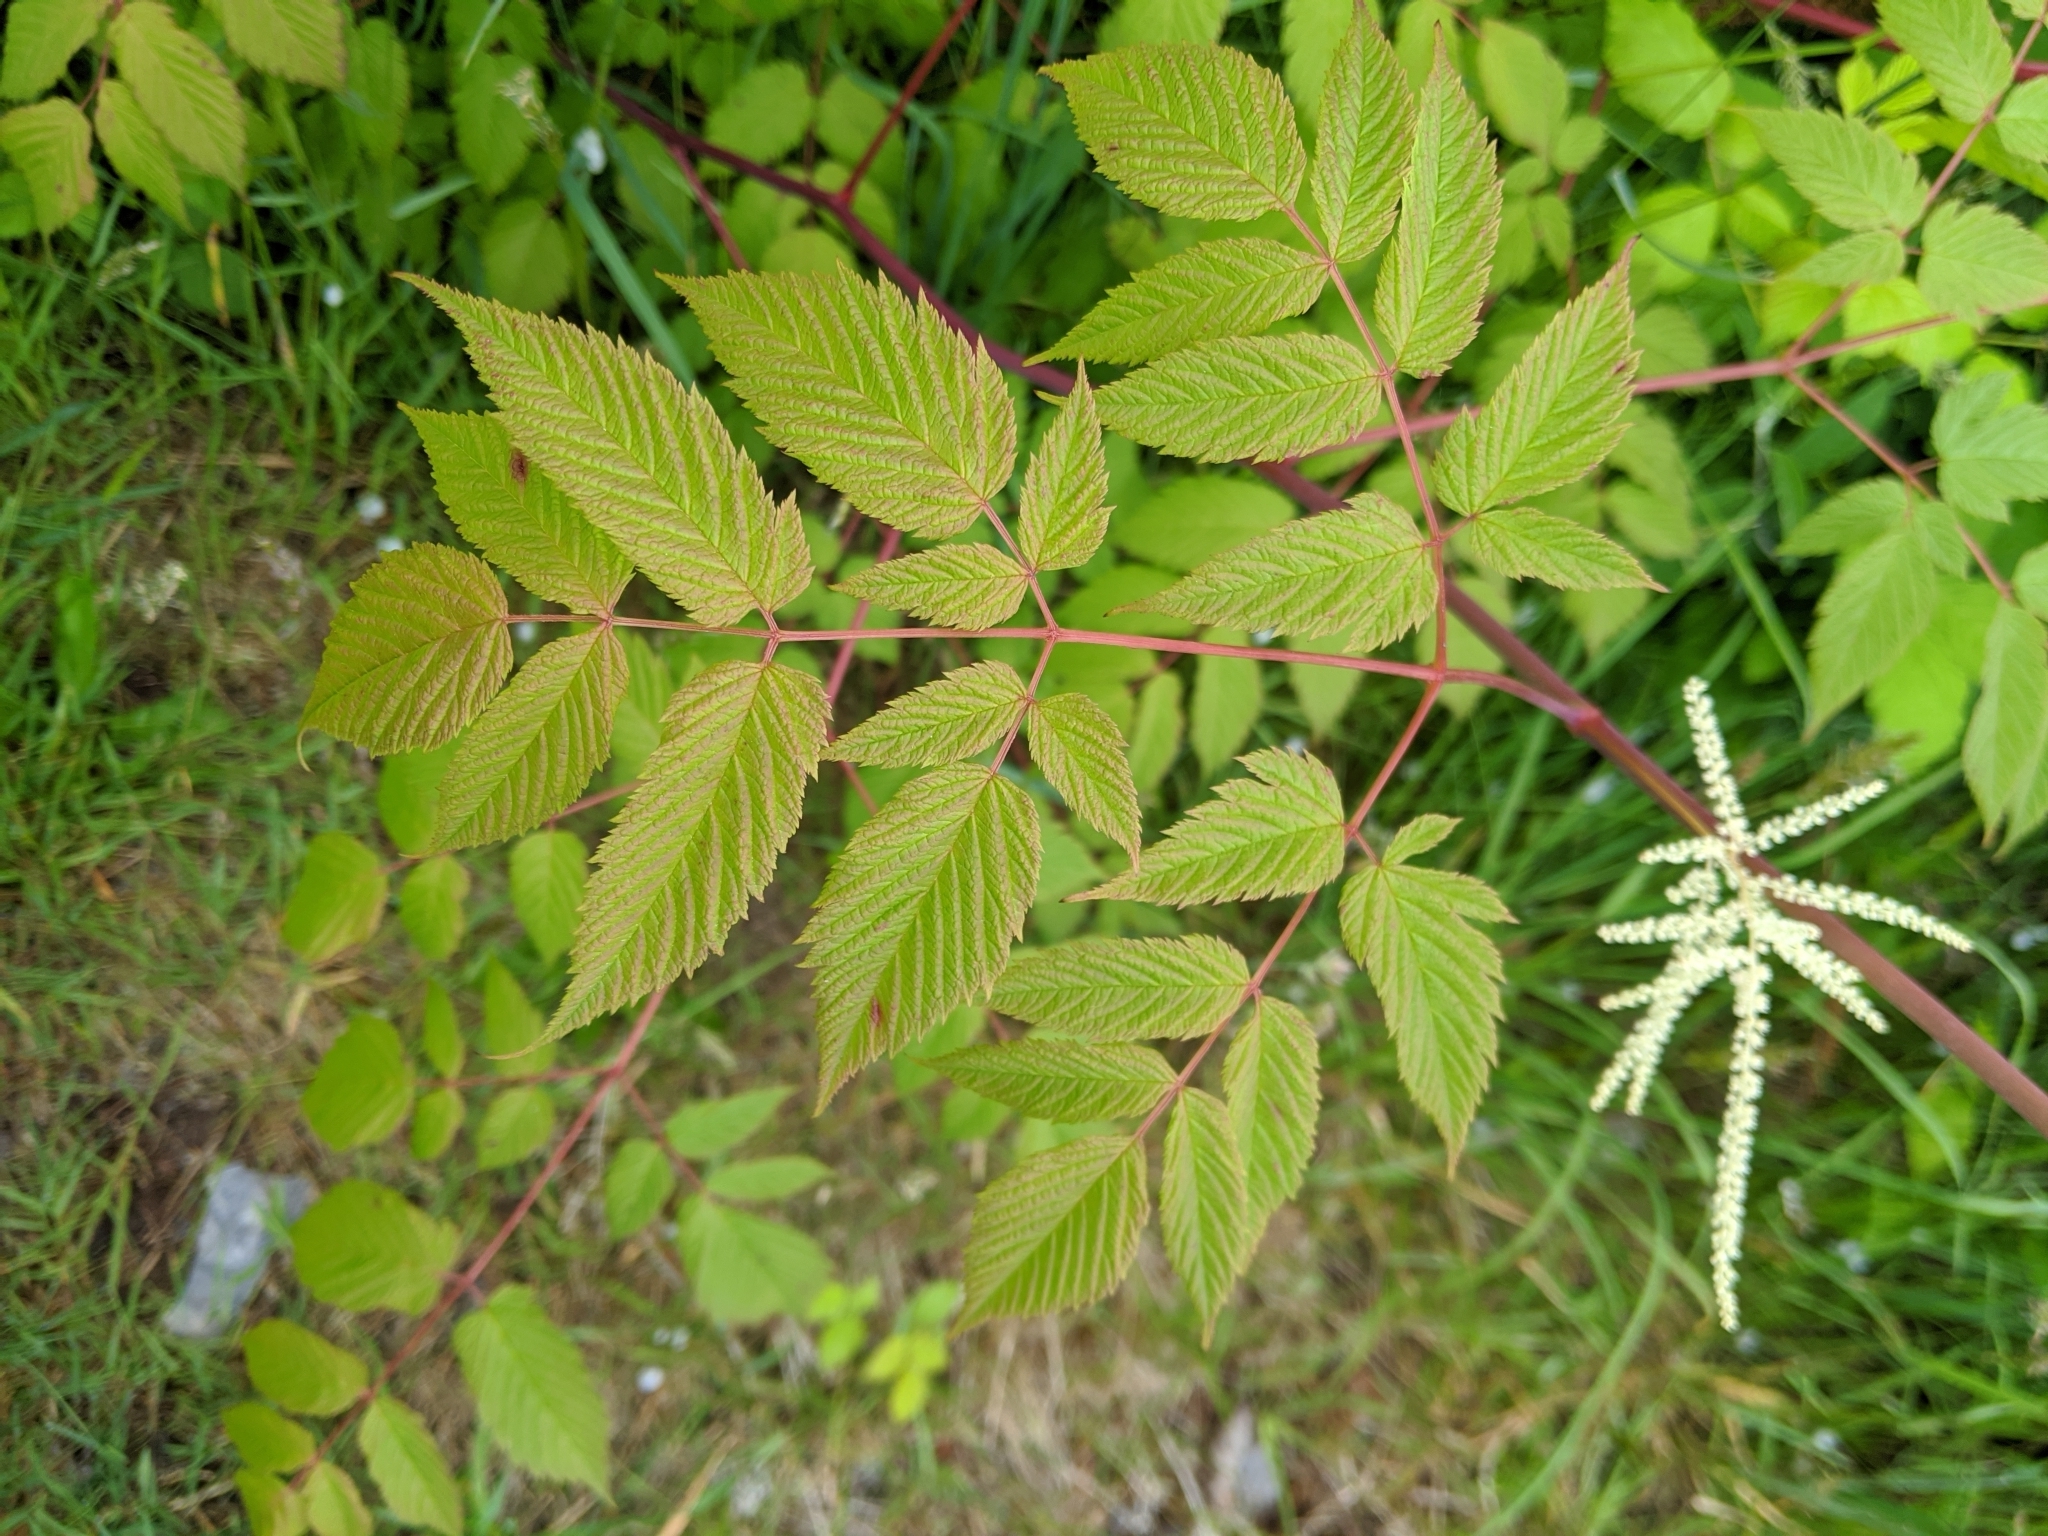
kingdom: Plantae
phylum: Tracheophyta
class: Magnoliopsida
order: Rosales
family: Rosaceae
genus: Aruncus
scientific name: Aruncus dioicus
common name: Buck's-beard
